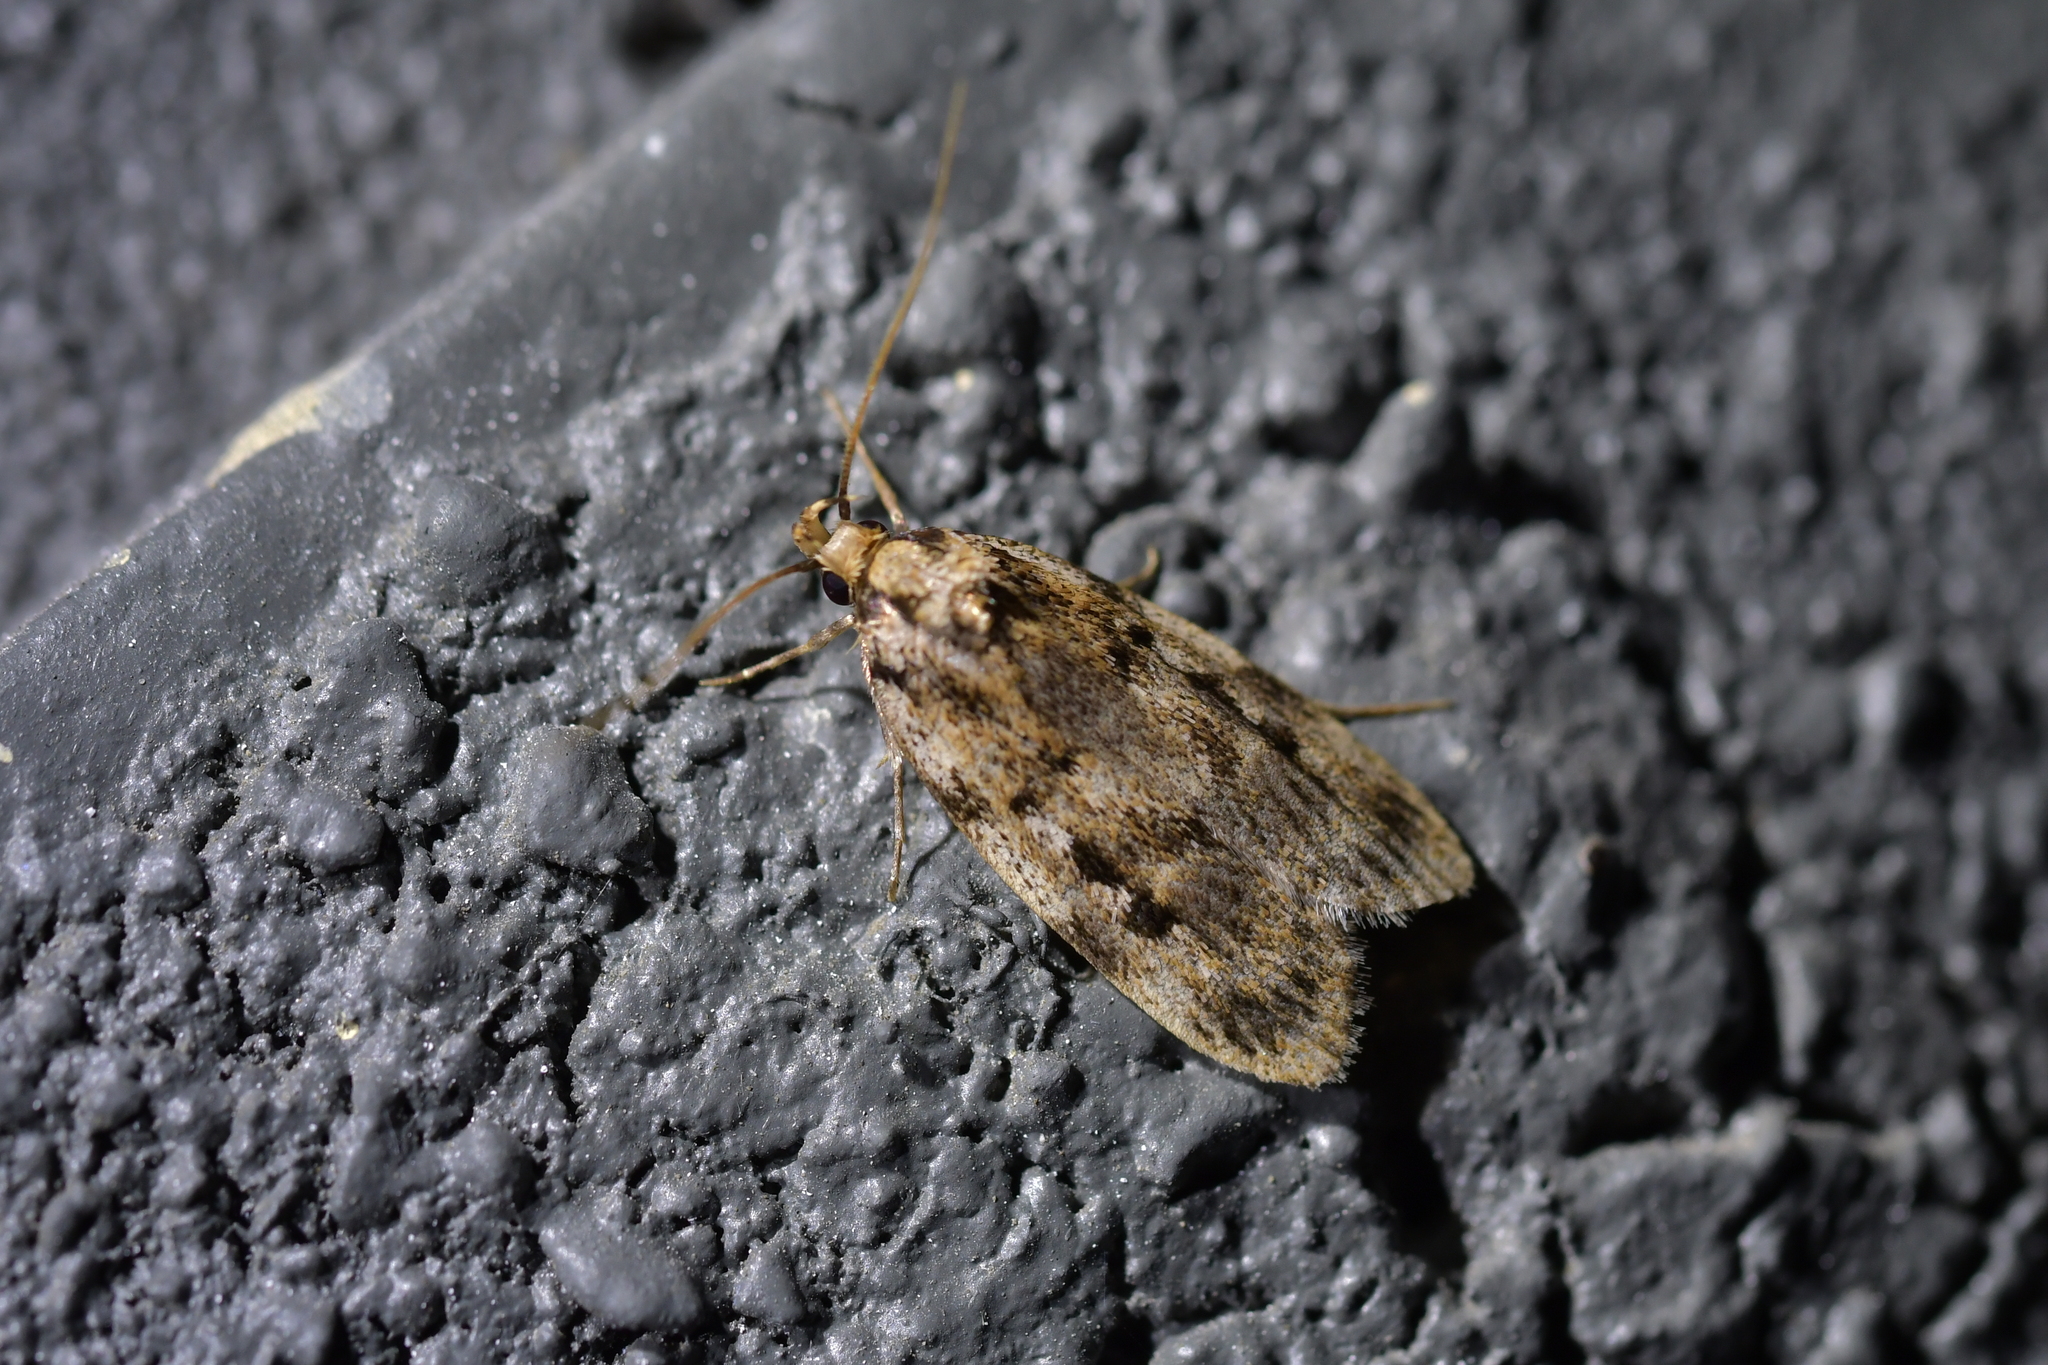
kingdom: Animalia
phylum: Arthropoda
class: Insecta
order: Lepidoptera
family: Oecophoridae
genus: Barea
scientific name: Barea exarcha
